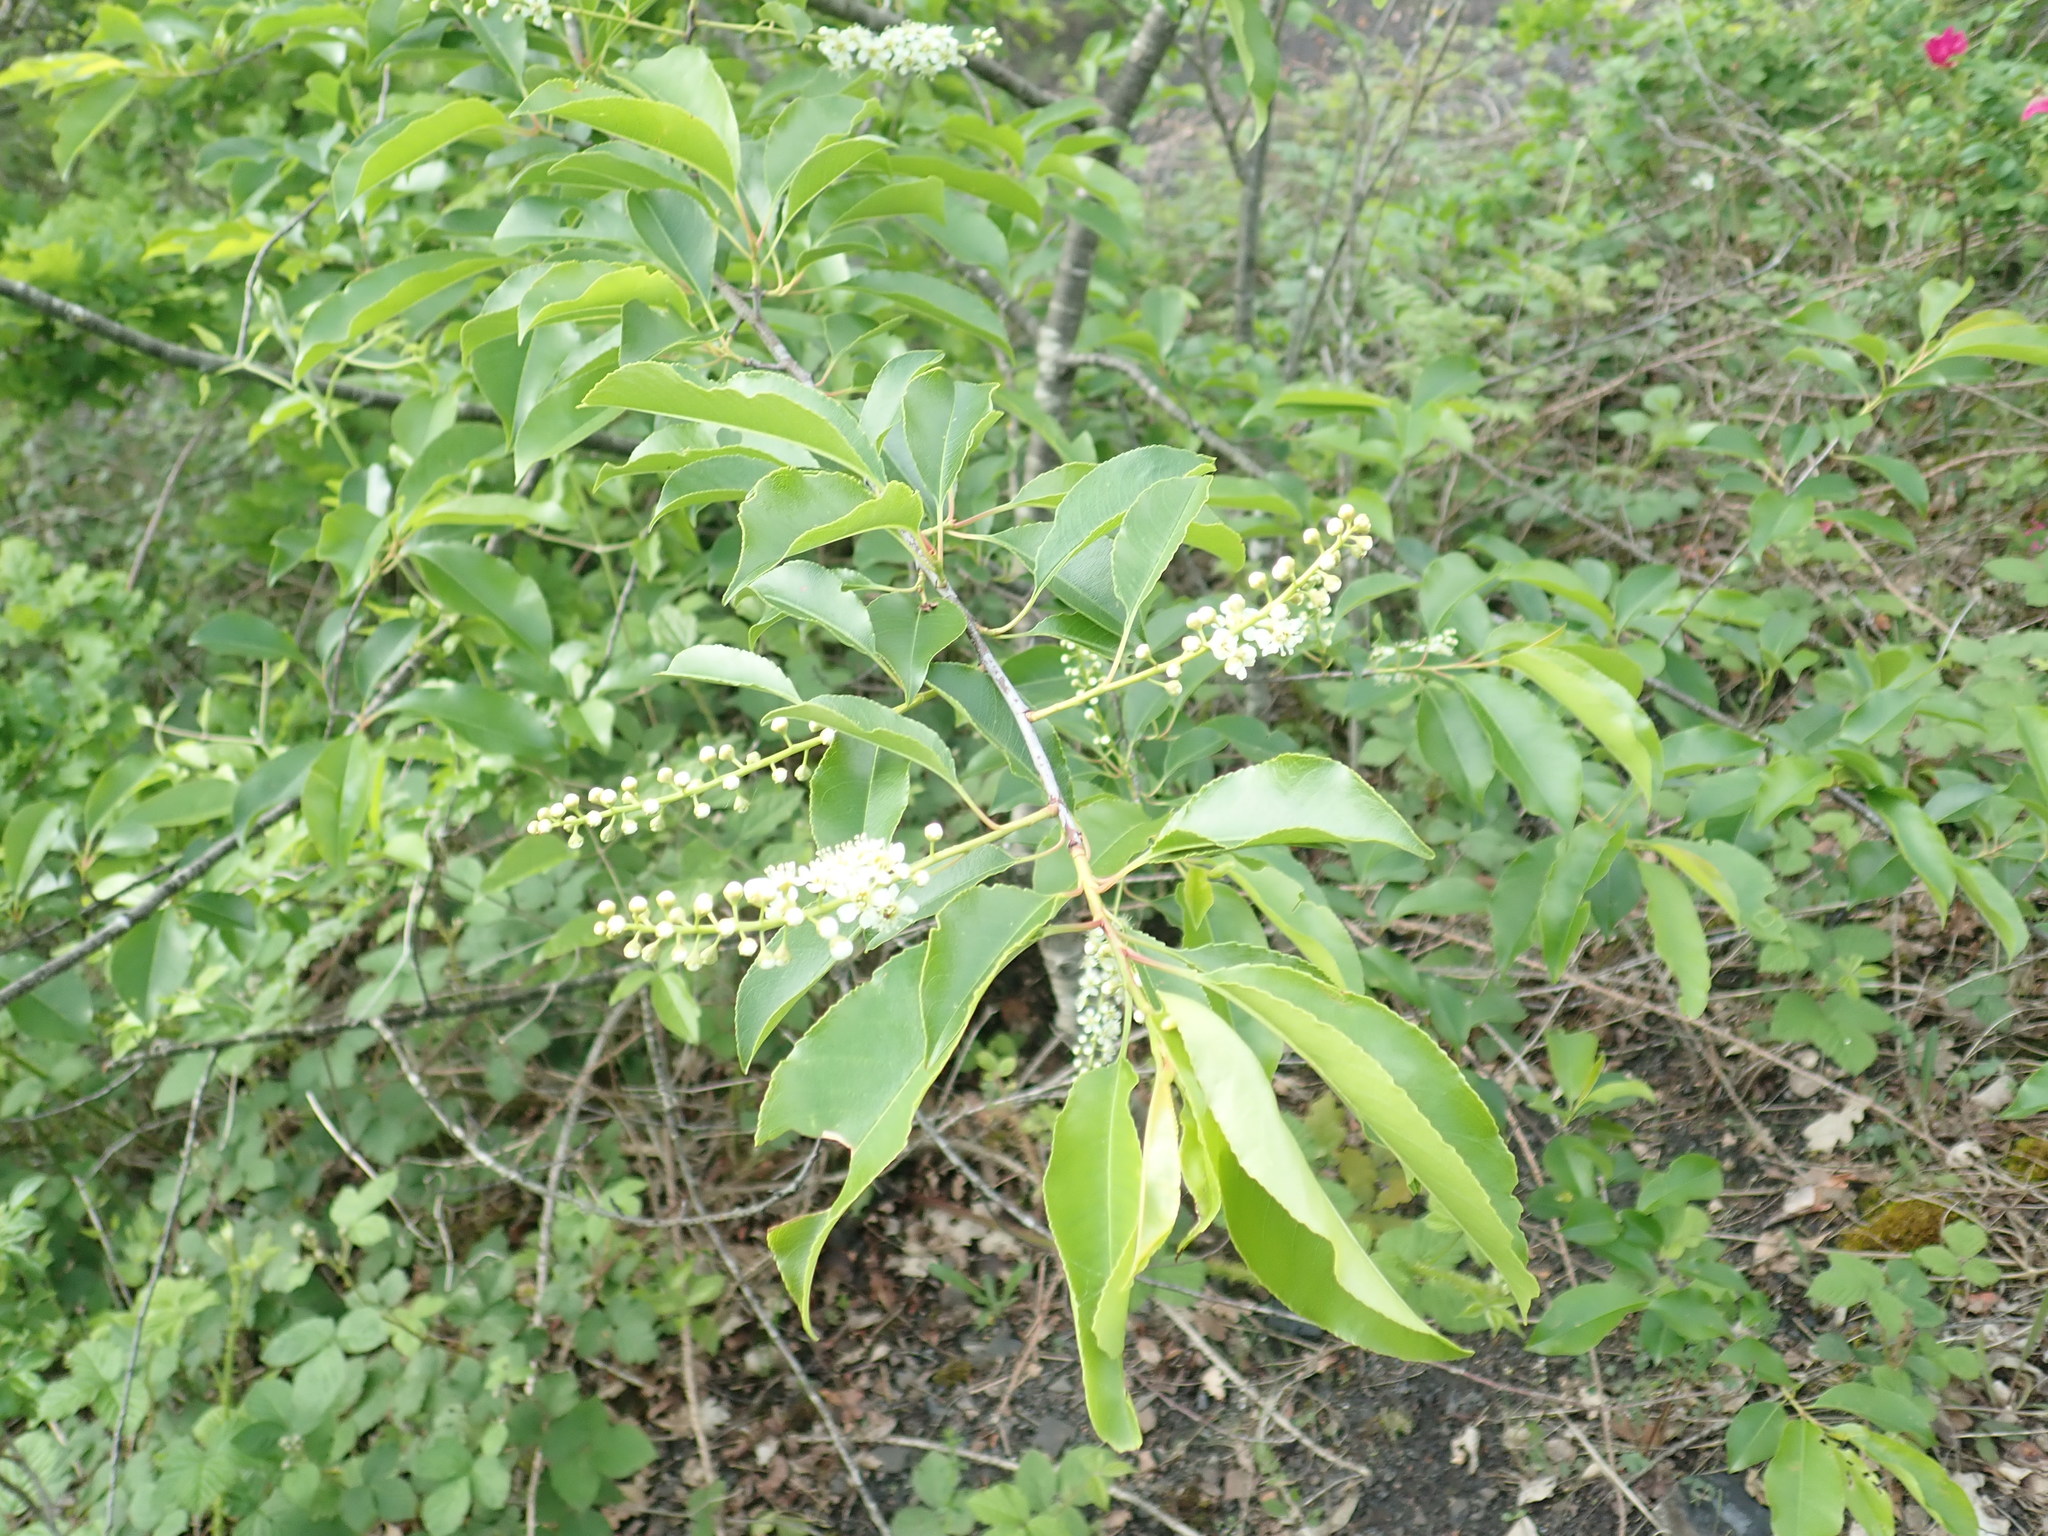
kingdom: Plantae
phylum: Tracheophyta
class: Magnoliopsida
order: Rosales
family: Rosaceae
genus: Prunus
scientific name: Prunus serotina
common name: Black cherry
